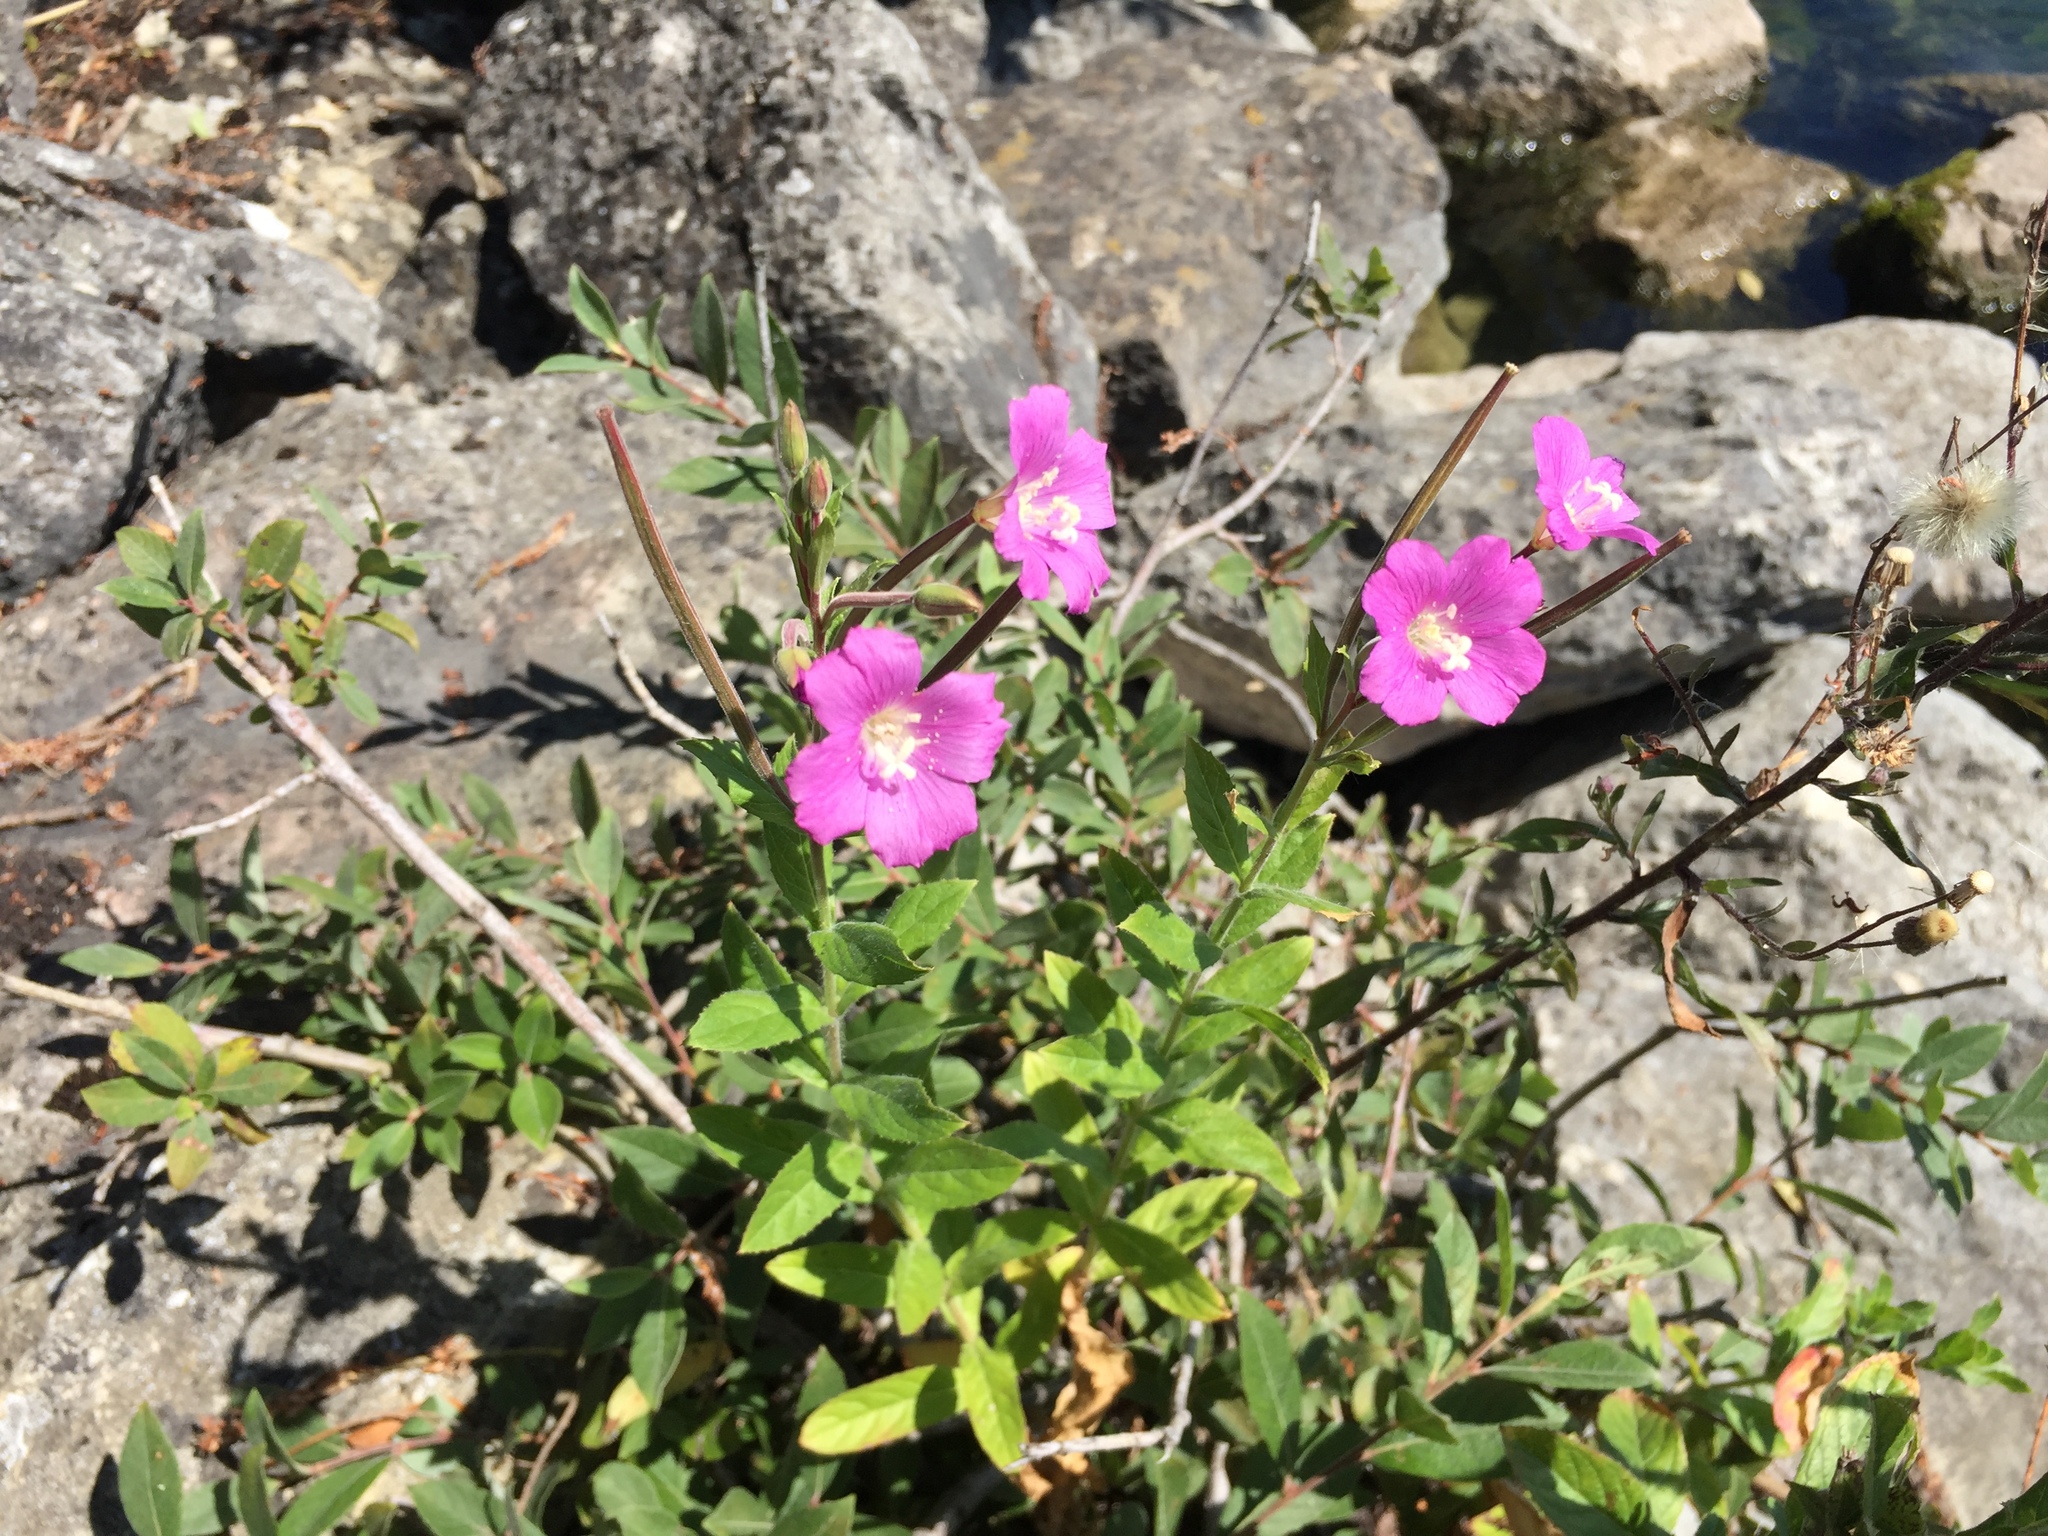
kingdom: Plantae
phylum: Tracheophyta
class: Magnoliopsida
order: Myrtales
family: Onagraceae
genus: Epilobium
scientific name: Epilobium hirsutum
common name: Great willowherb
